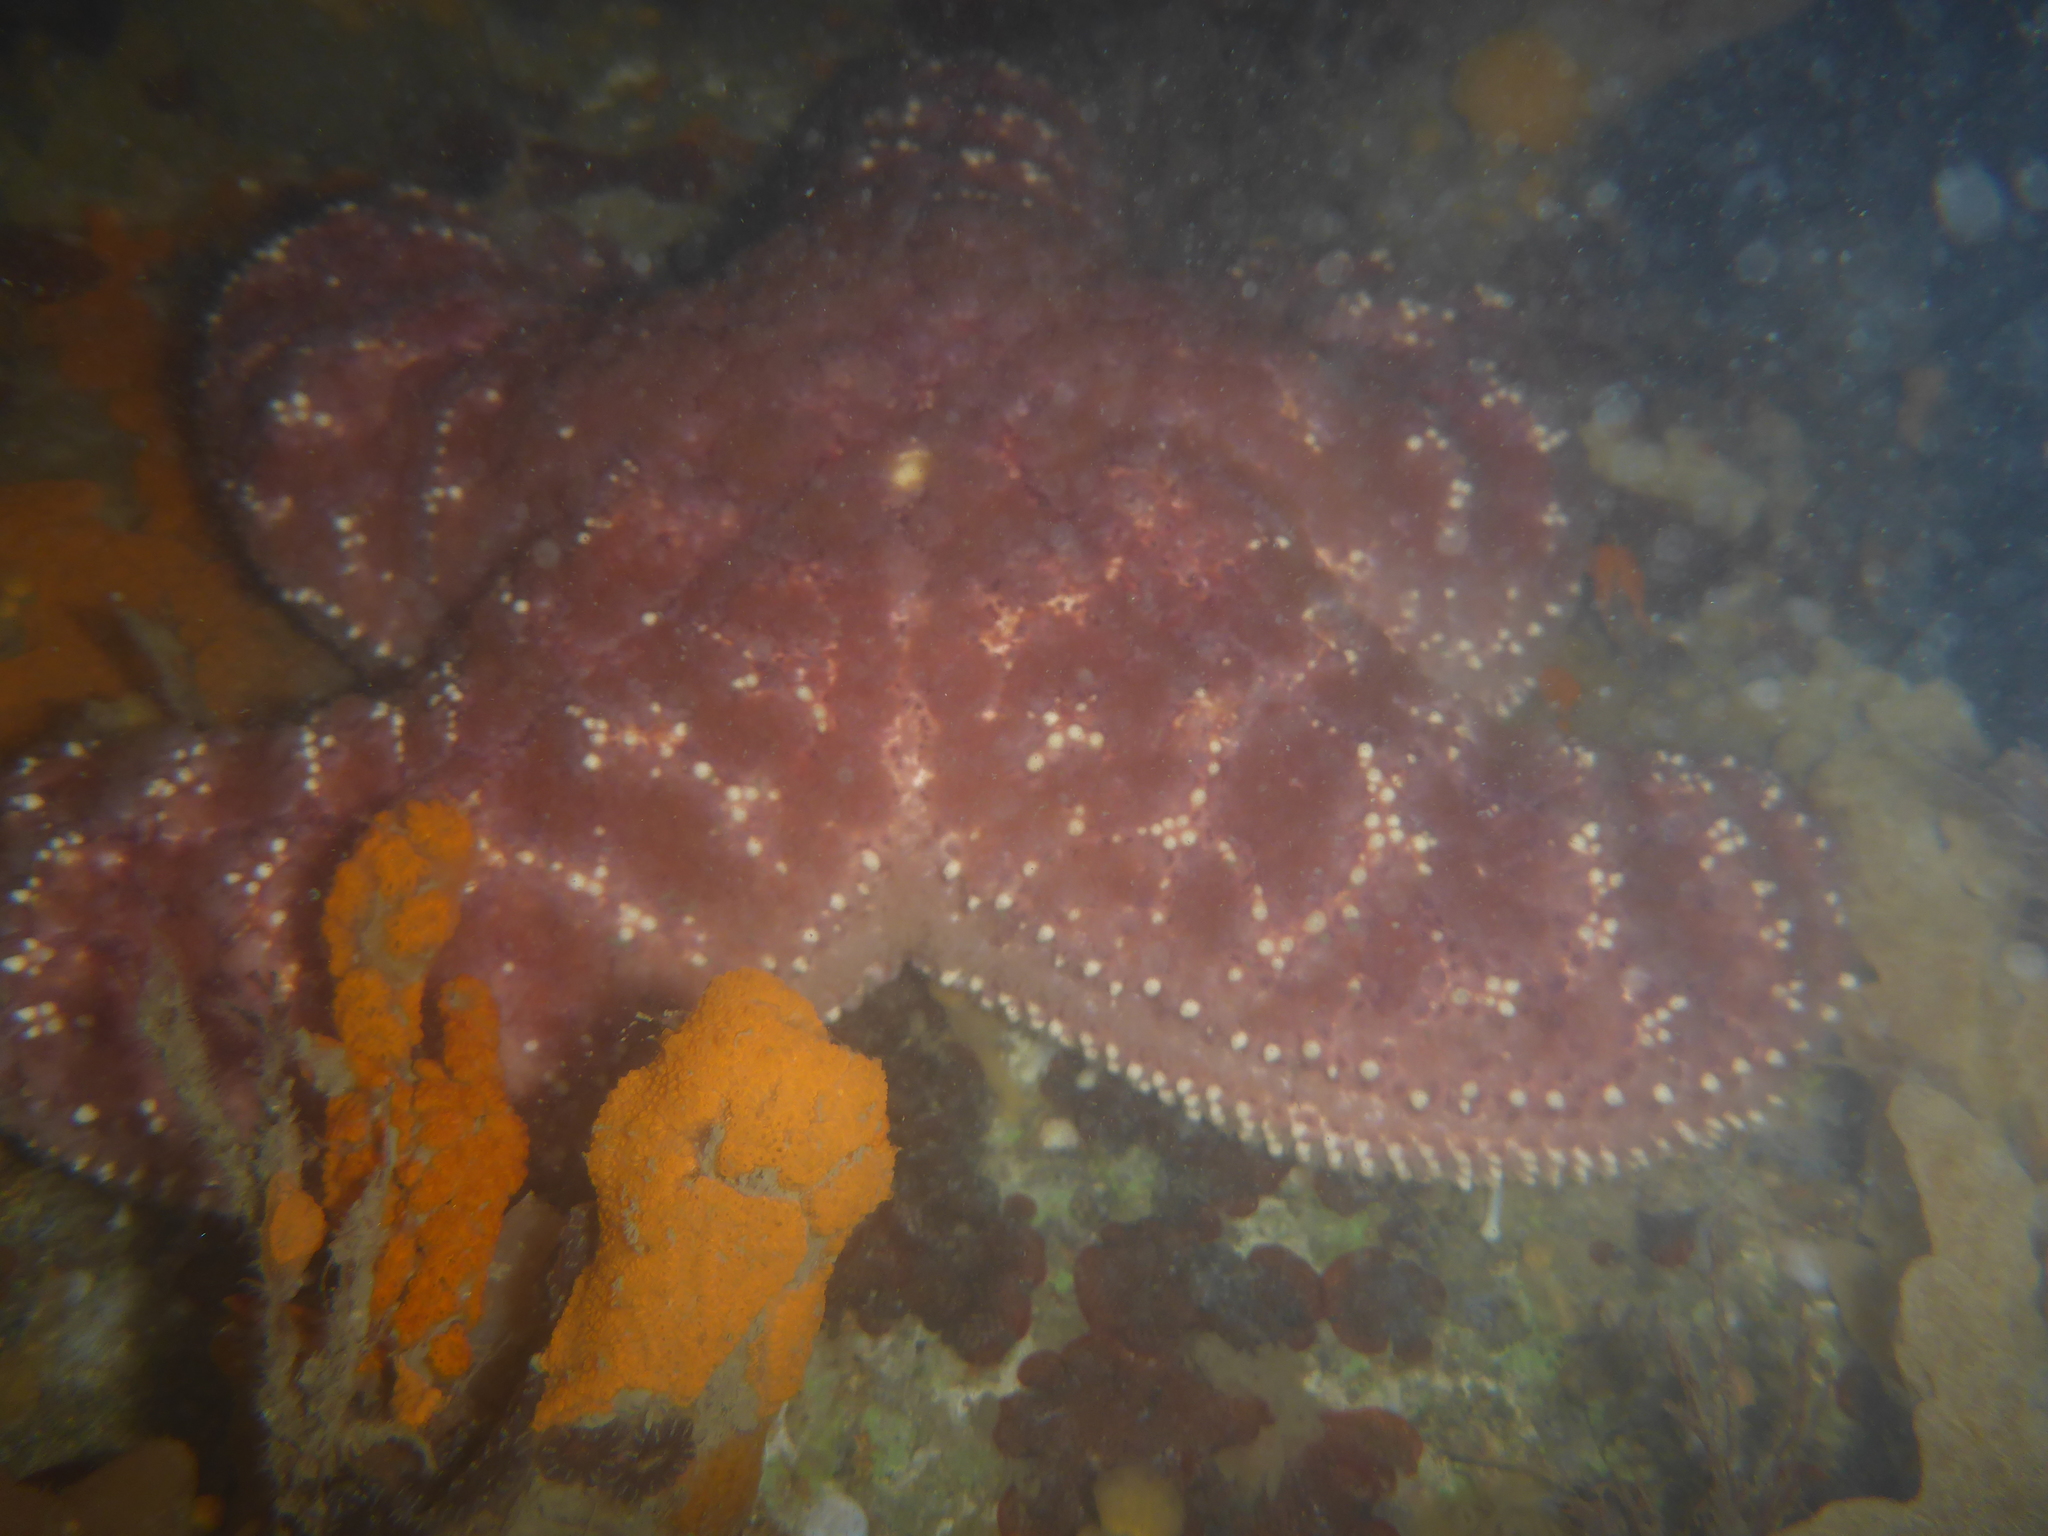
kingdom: Animalia
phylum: Echinodermata
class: Asteroidea
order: Forcipulatida
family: Asteriidae
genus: Pisaster
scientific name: Pisaster ochraceus
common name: Ochre stars
